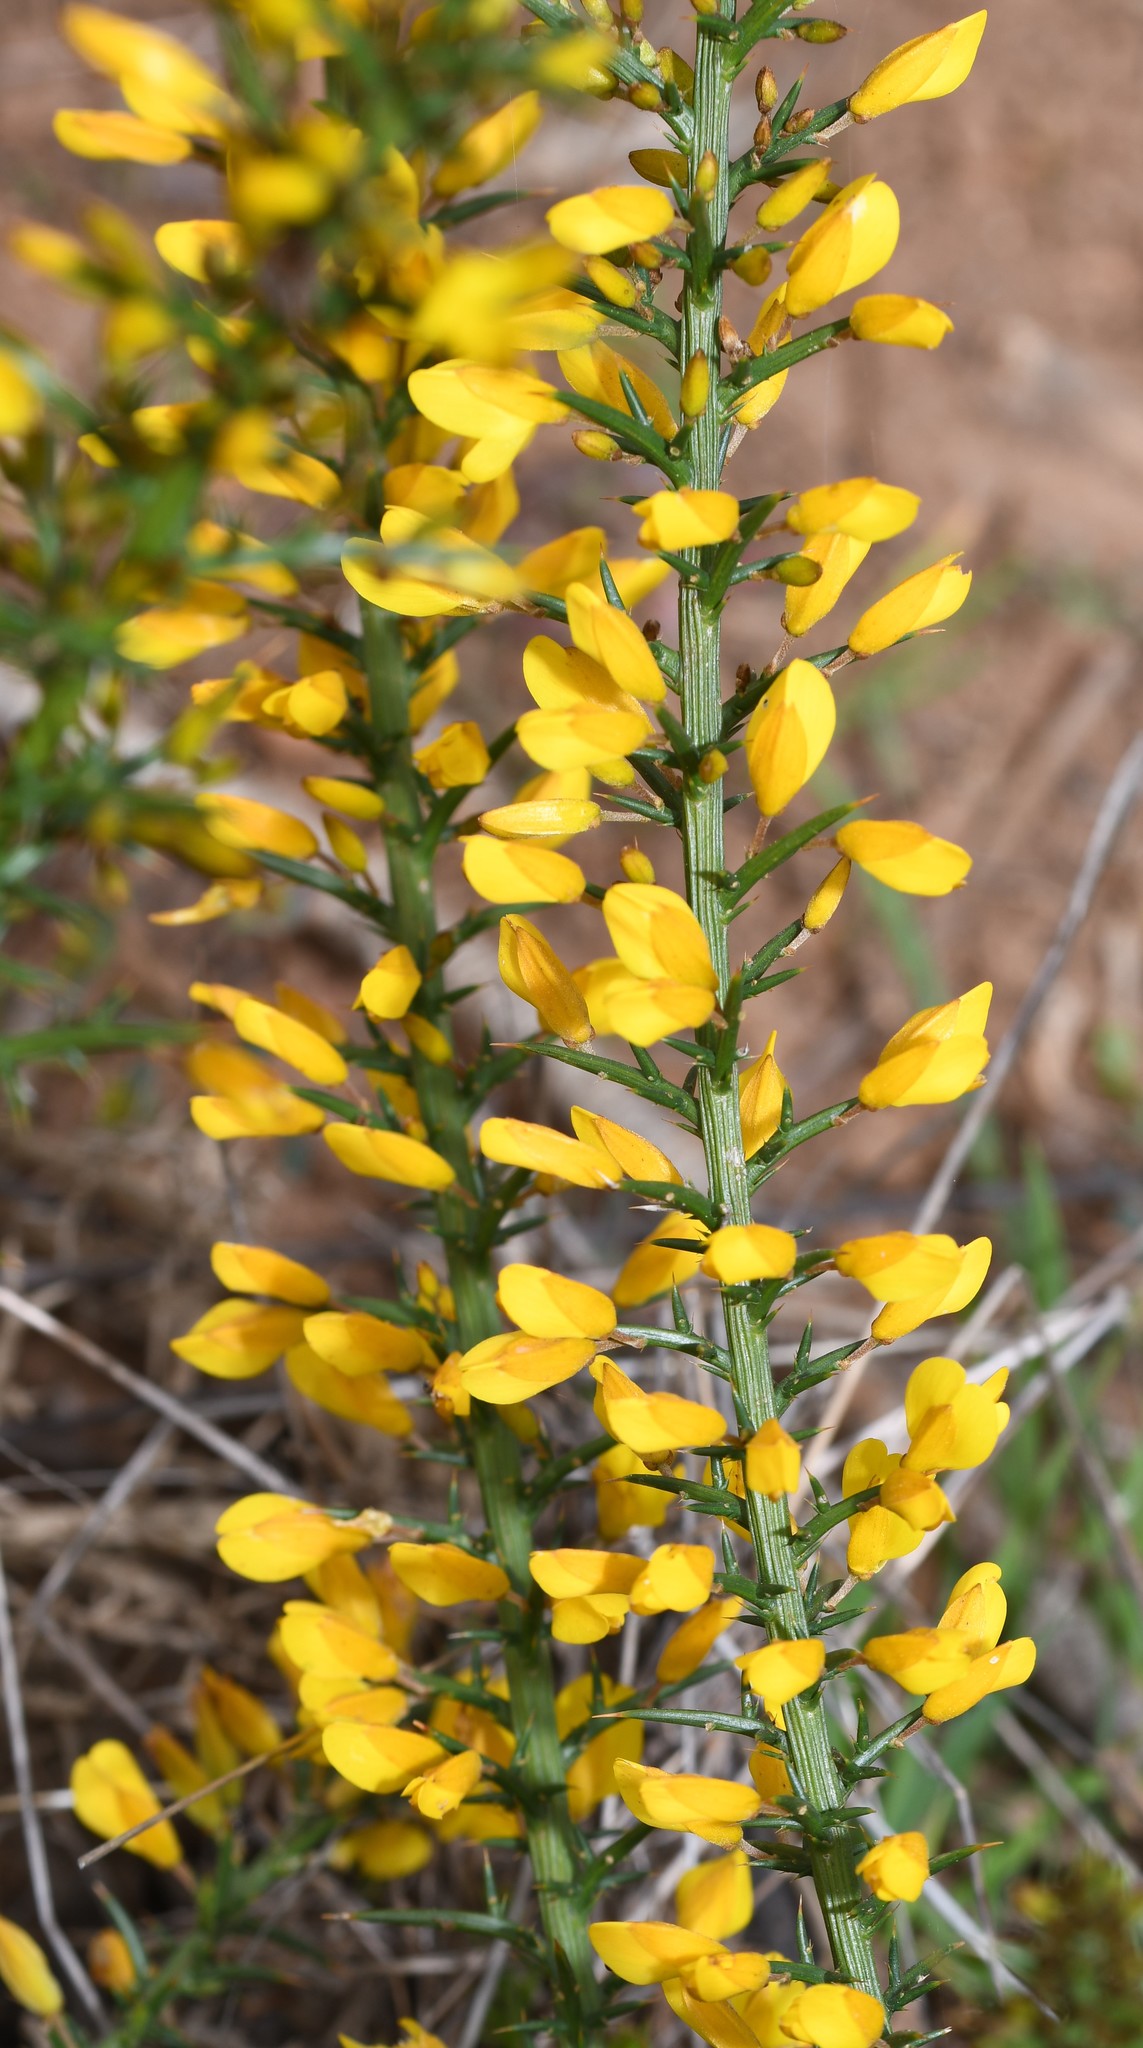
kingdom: Plantae
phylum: Tracheophyta
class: Magnoliopsida
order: Fabales
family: Fabaceae
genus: Ulex
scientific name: Ulex parviflorus
